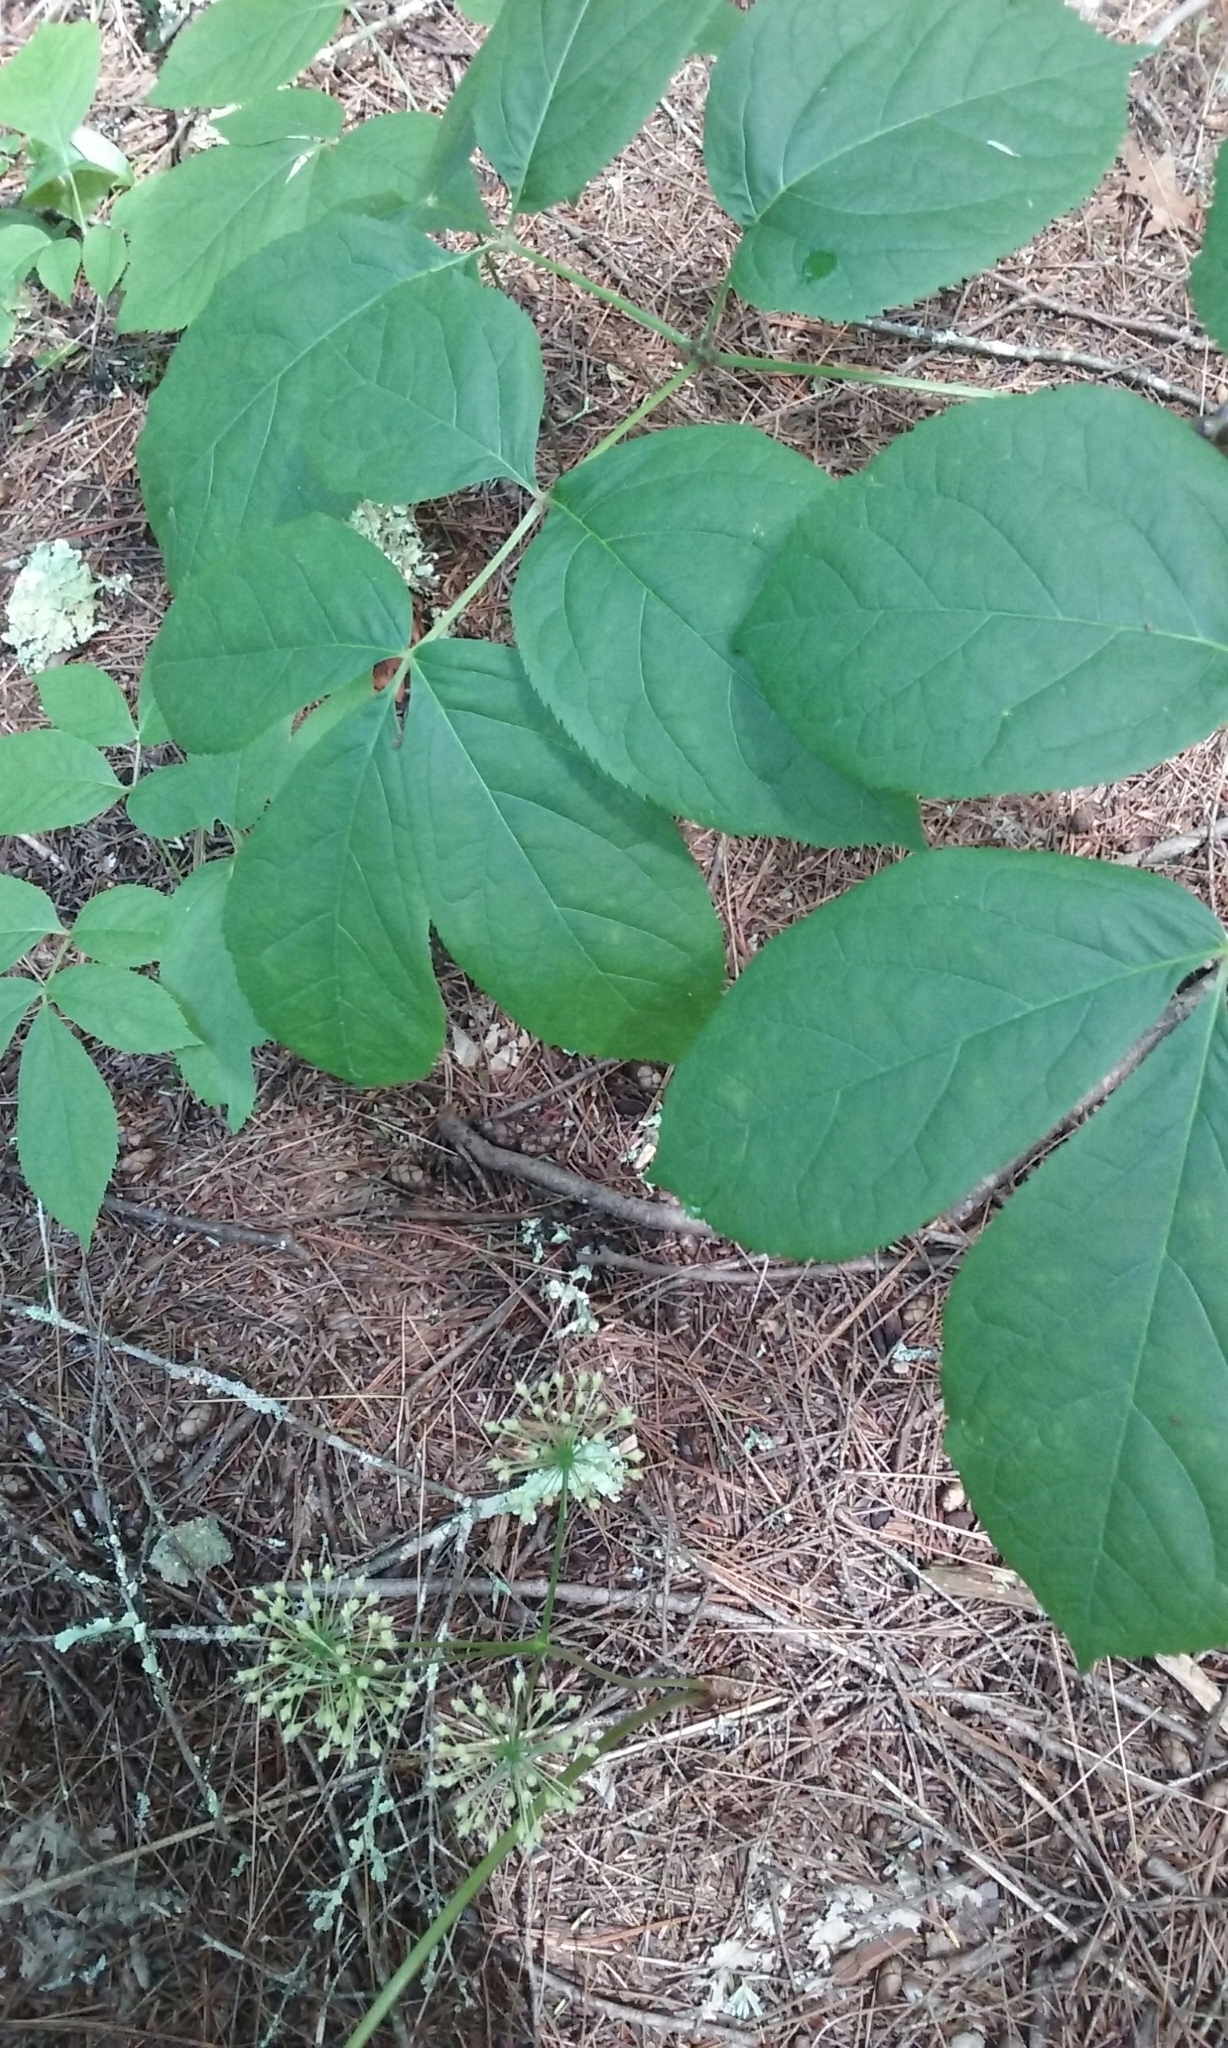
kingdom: Plantae
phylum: Tracheophyta
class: Magnoliopsida
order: Apiales
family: Araliaceae
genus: Aralia
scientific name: Aralia nudicaulis
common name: Wild sarsaparilla
